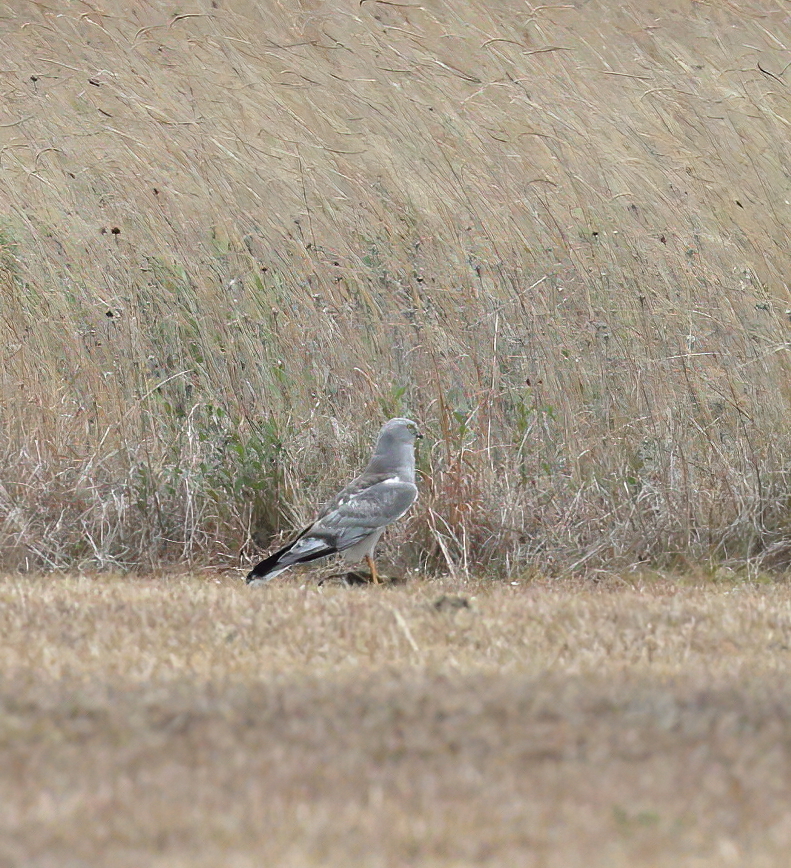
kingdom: Animalia
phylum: Chordata
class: Aves
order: Accipitriformes
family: Accipitridae
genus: Circus
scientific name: Circus cyaneus
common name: Hen harrier
